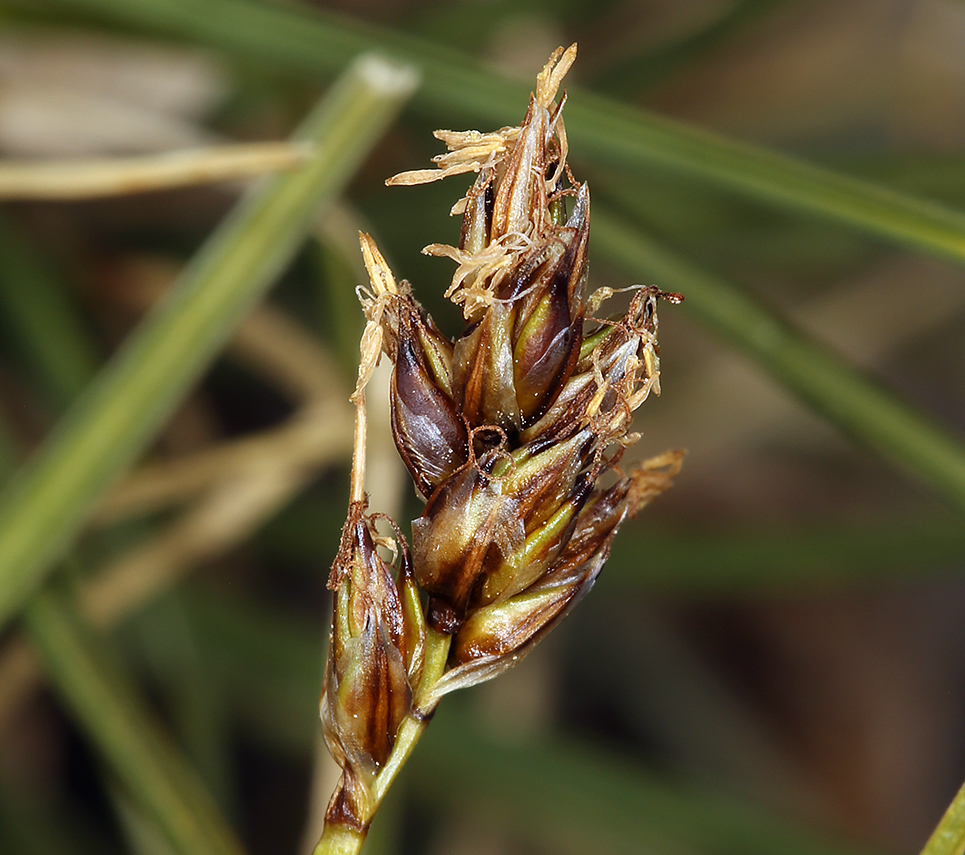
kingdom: Plantae
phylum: Tracheophyta
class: Liliopsida
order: Poales
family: Cyperaceae
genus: Carex
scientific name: Carex incurviformis
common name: Coastal sand sedge
